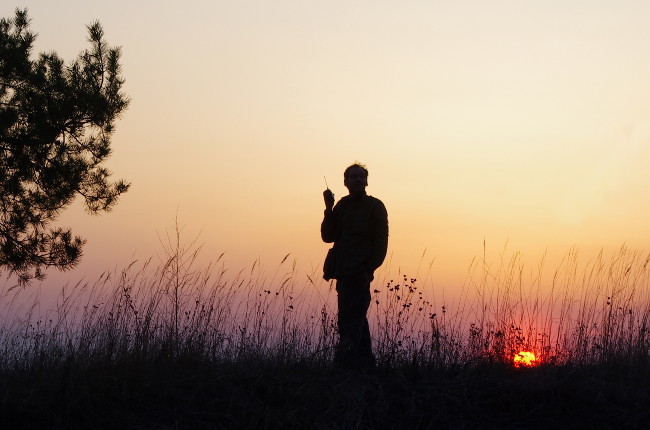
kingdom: Plantae
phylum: Tracheophyta
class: Pinopsida
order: Pinales
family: Pinaceae
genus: Pinus
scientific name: Pinus sylvestris
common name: Scots pine
